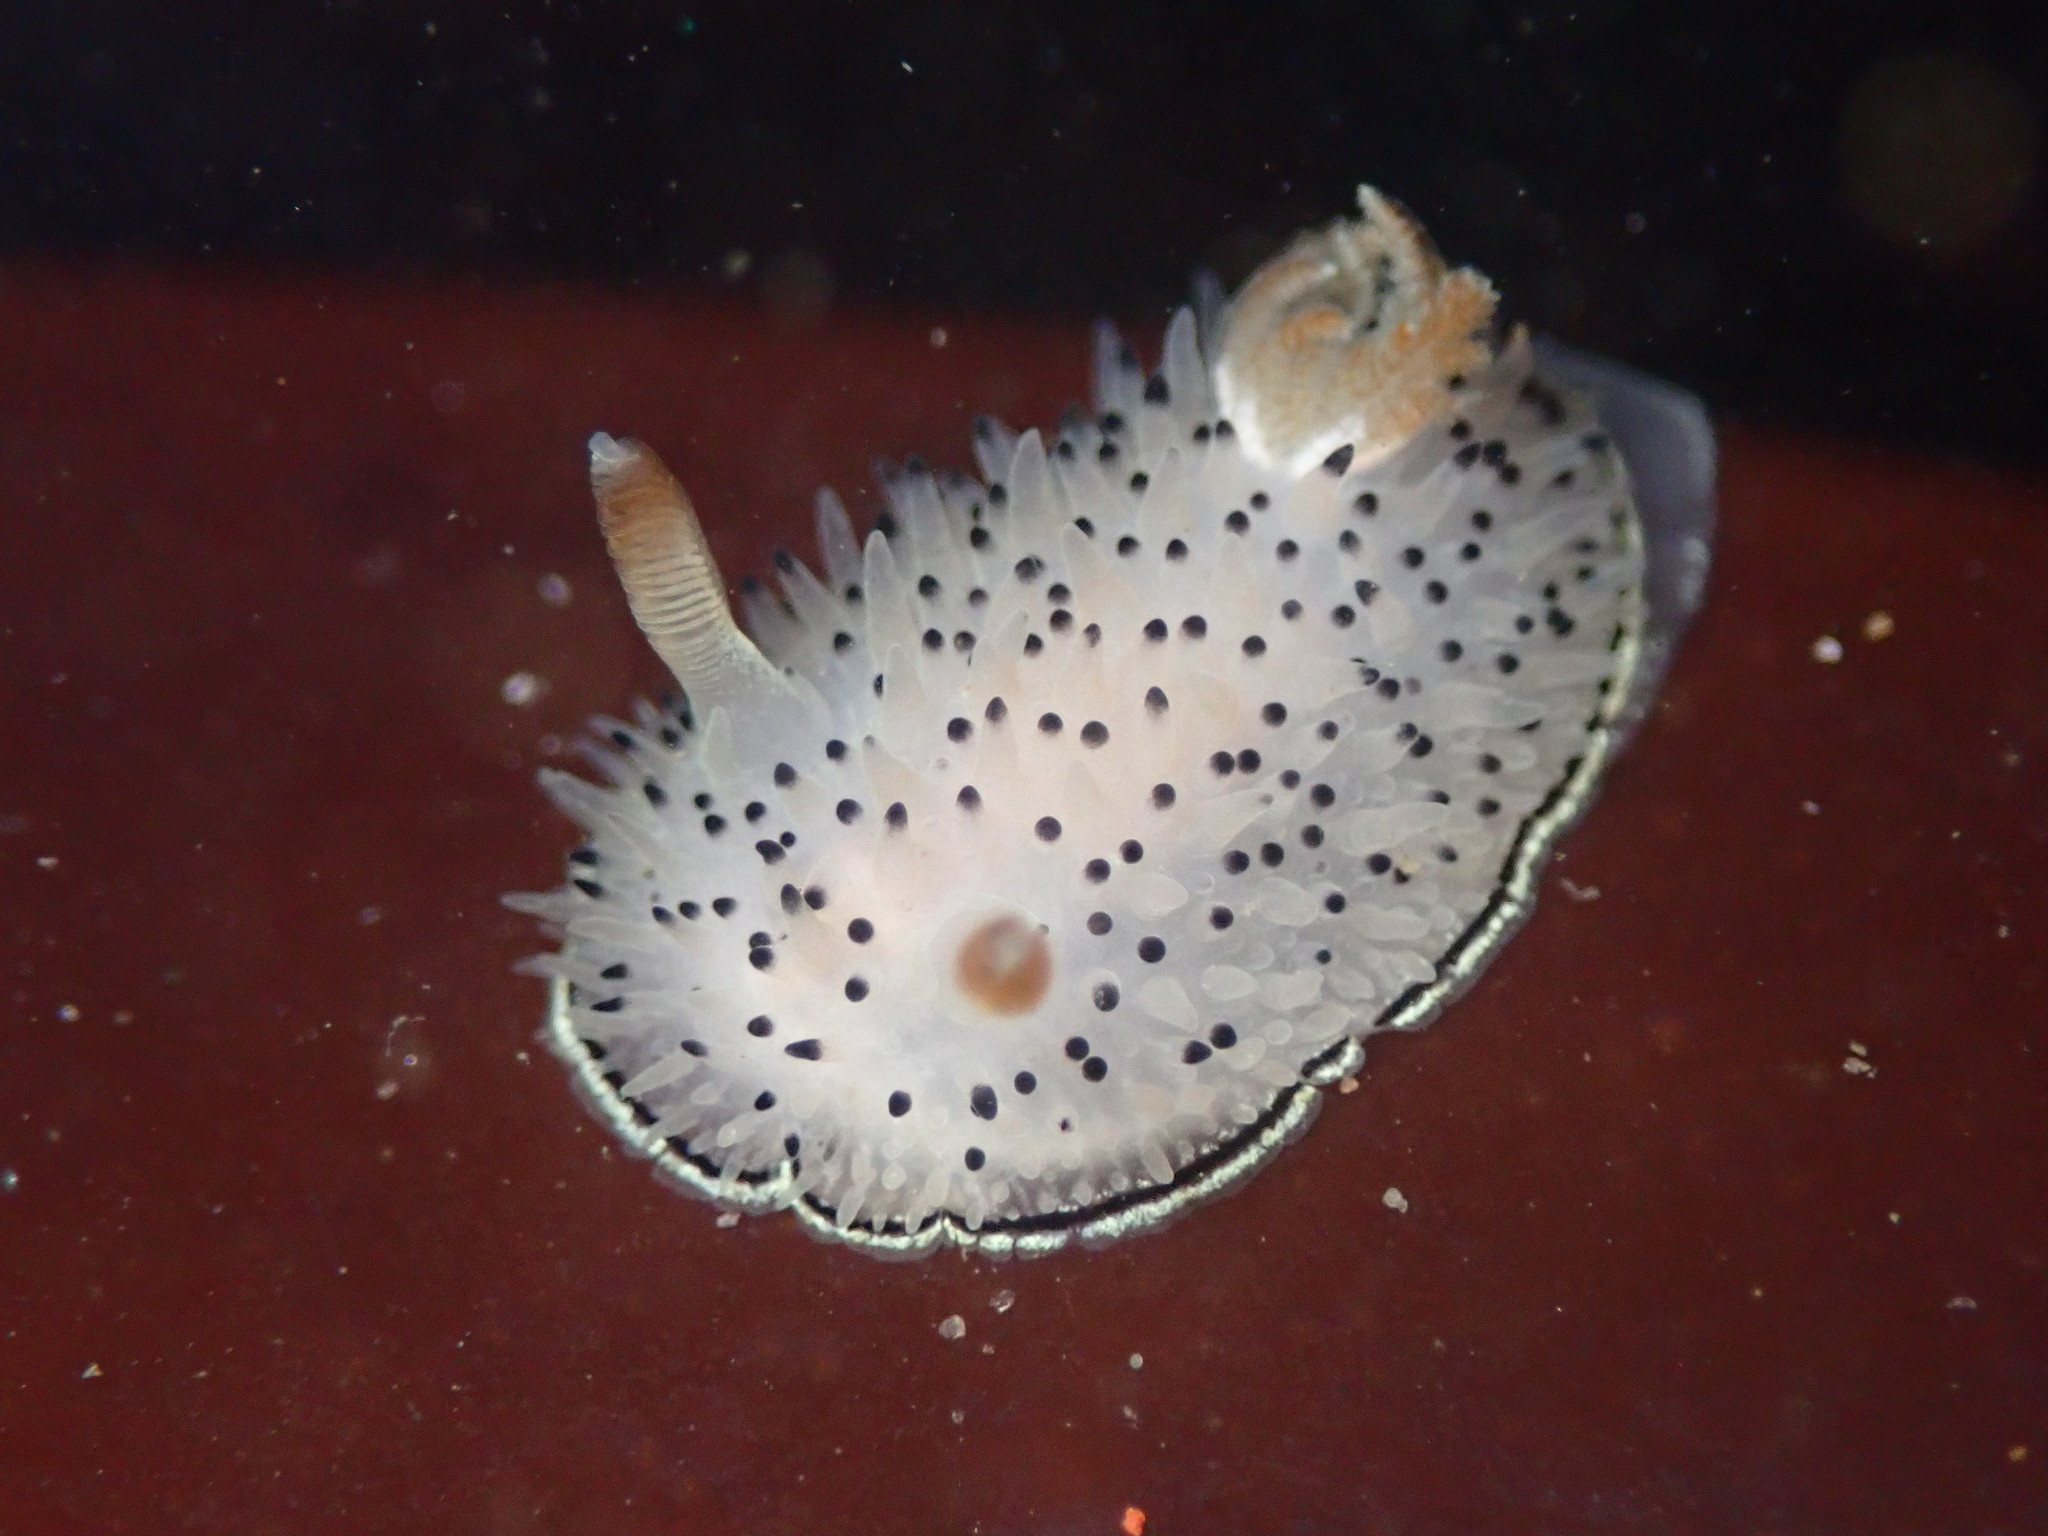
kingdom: Animalia
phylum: Mollusca
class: Gastropoda
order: Nudibranchia
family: Onchidorididae
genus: Acanthodoris
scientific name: Acanthodoris rhodoceras
